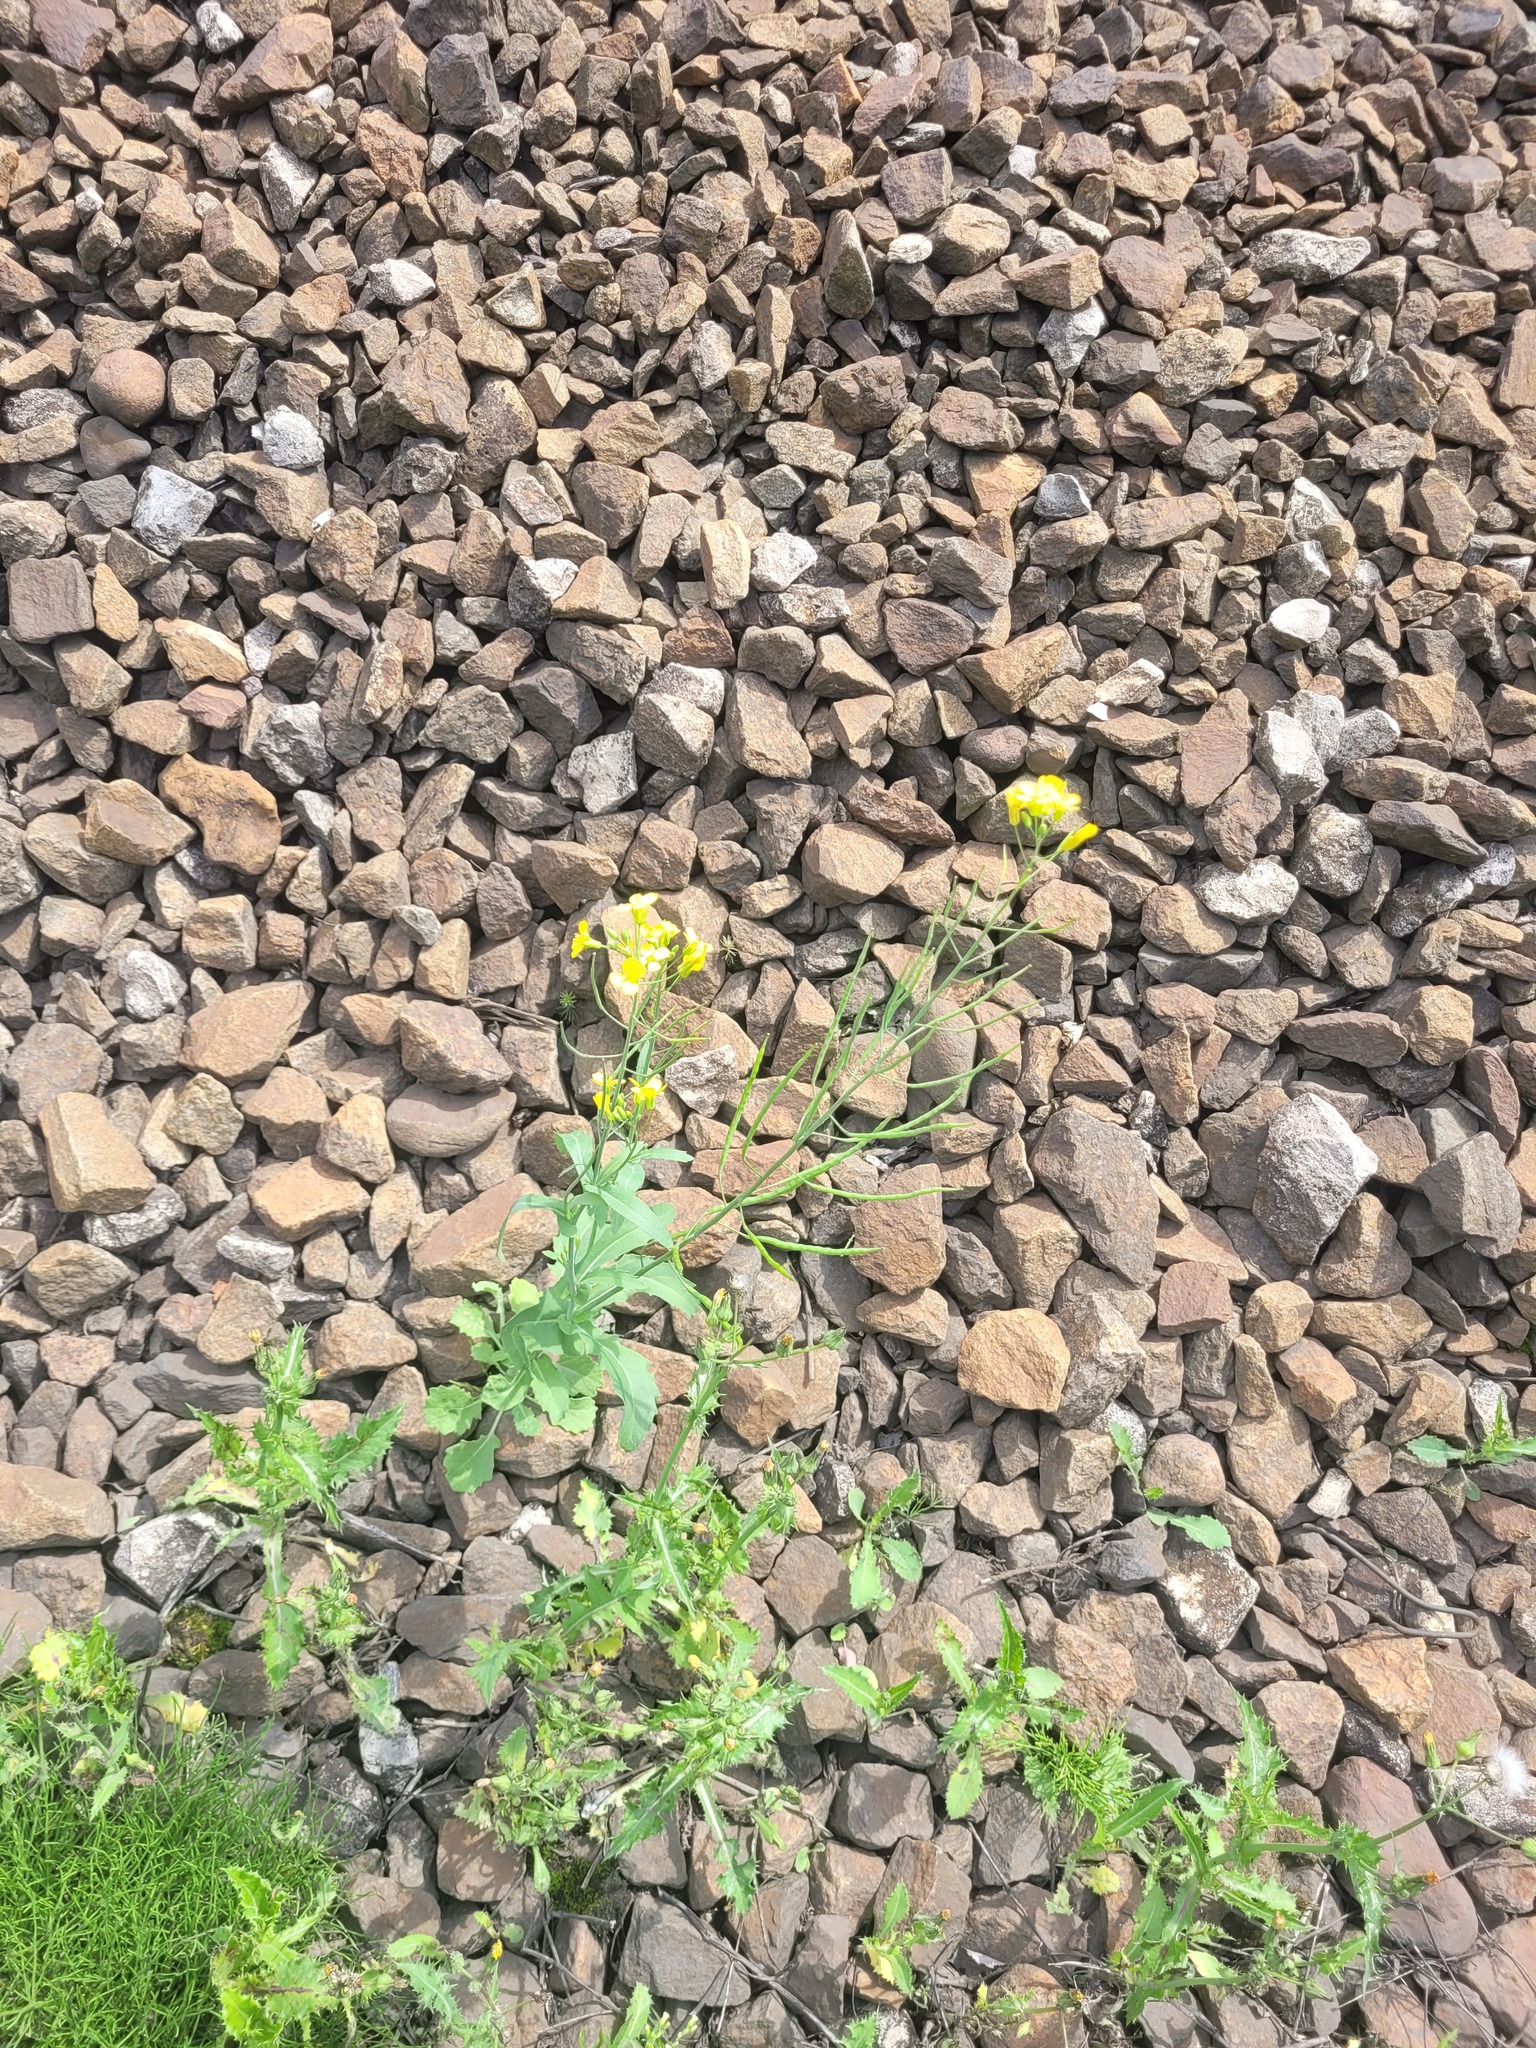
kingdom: Plantae
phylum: Tracheophyta
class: Magnoliopsida
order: Brassicales
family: Brassicaceae
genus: Brassica
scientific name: Brassica napus
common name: Rape
